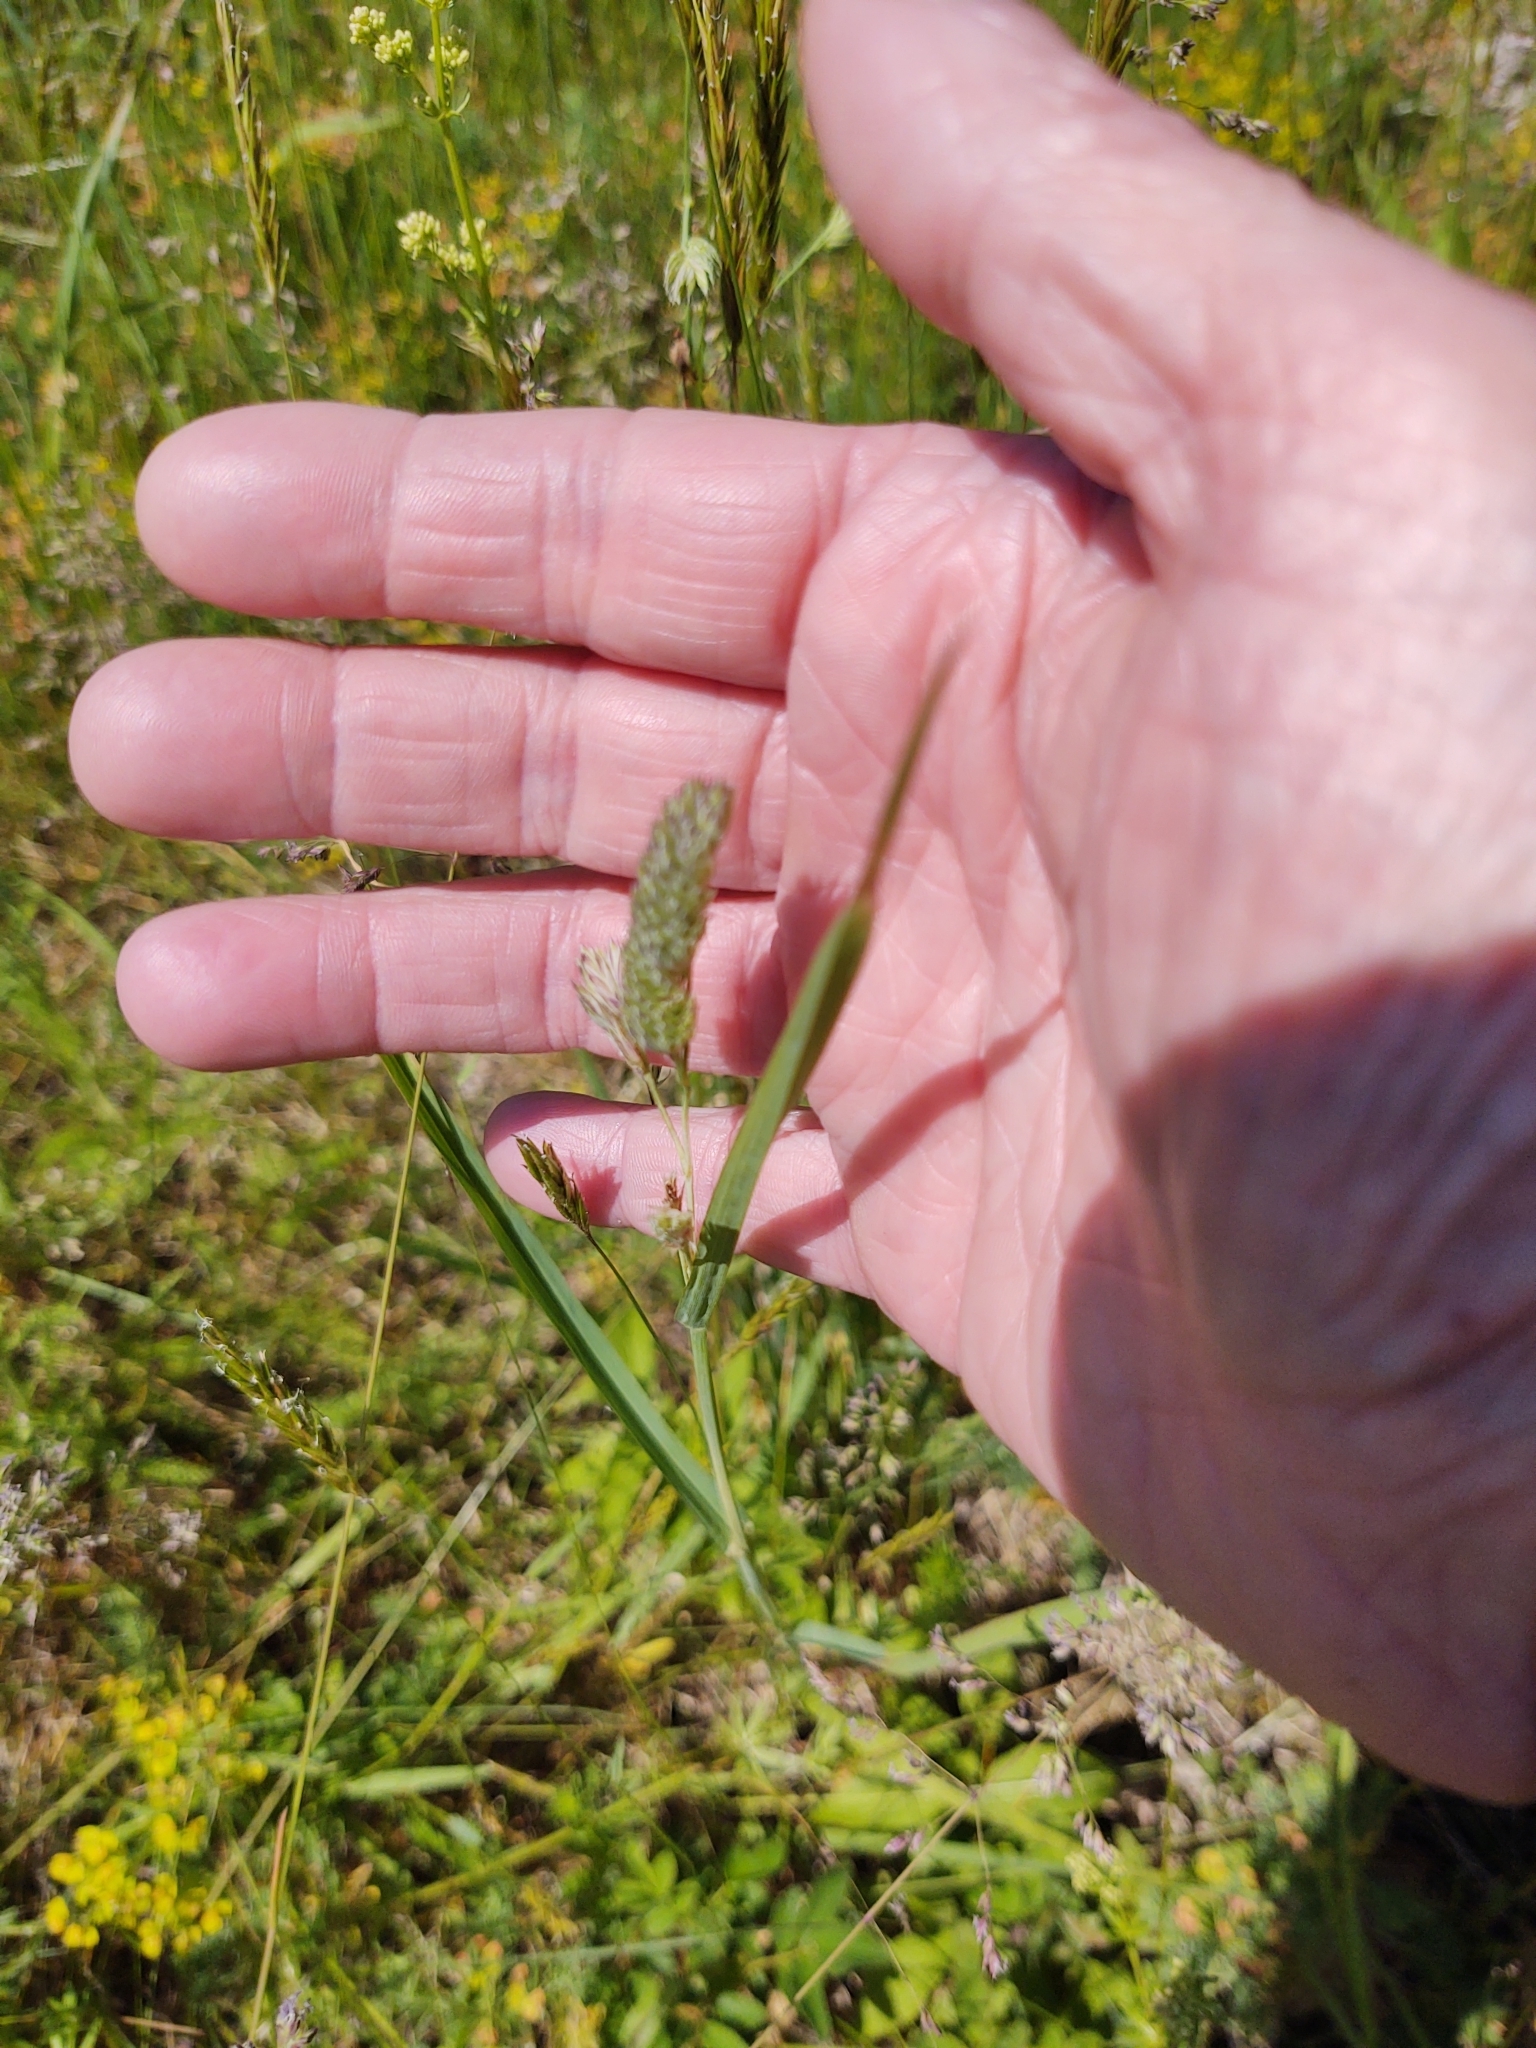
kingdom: Plantae
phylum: Tracheophyta
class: Liliopsida
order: Poales
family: Poaceae
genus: Dactylis
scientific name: Dactylis glomerata
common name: Orchardgrass
